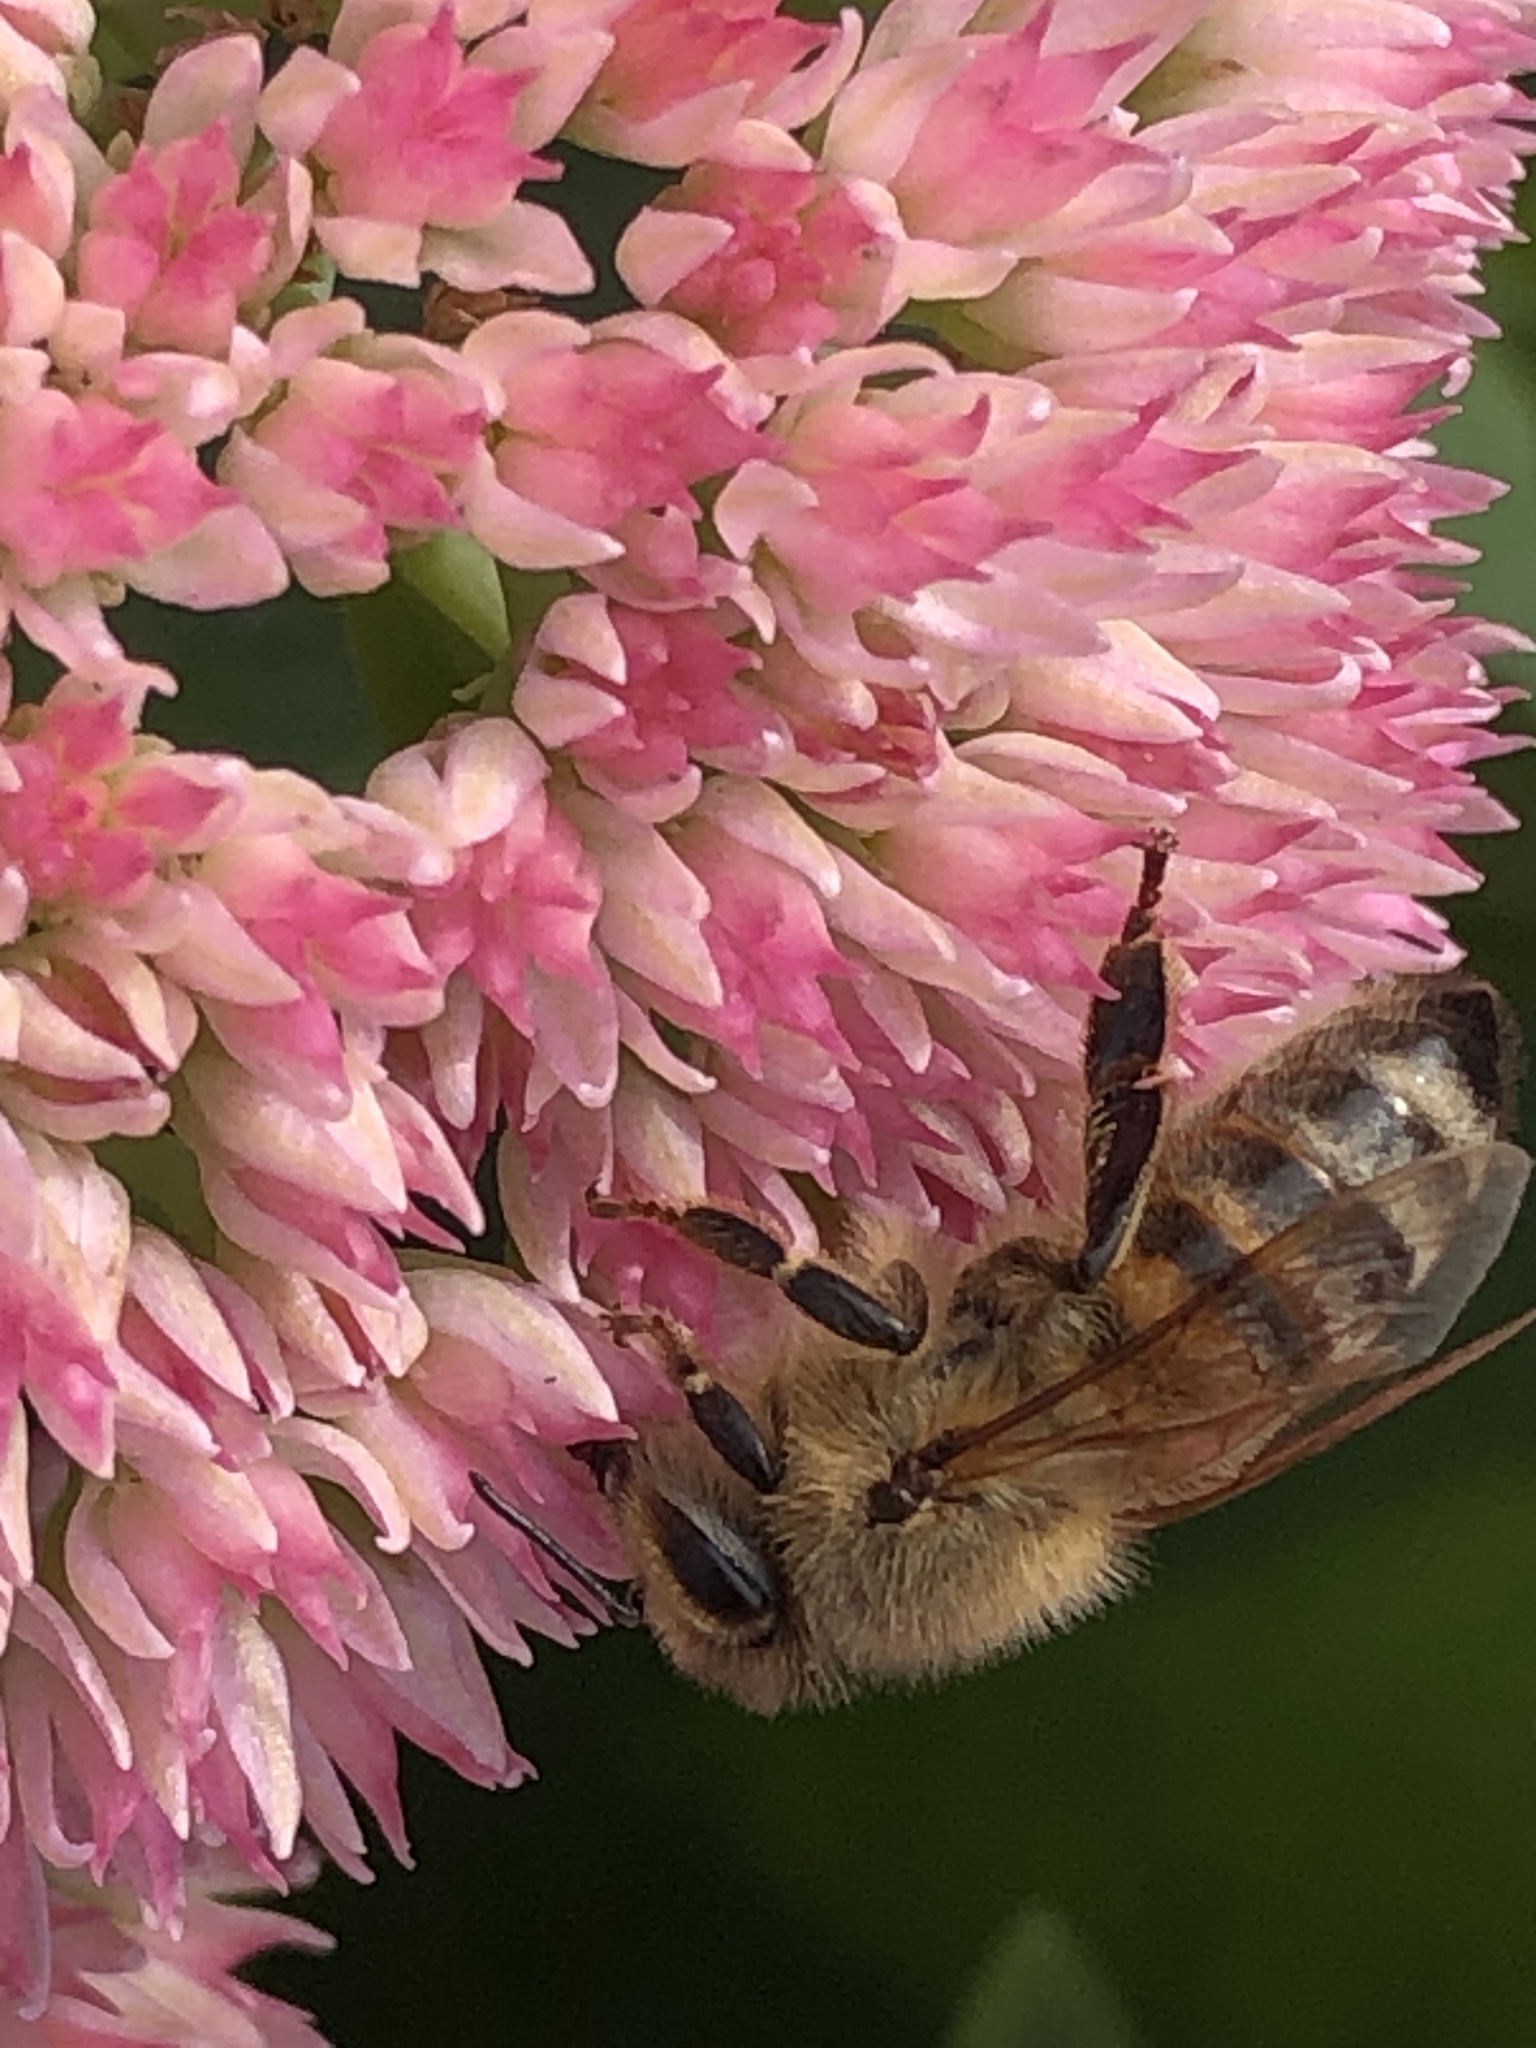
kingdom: Animalia
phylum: Arthropoda
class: Insecta
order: Hymenoptera
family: Apidae
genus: Apis
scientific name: Apis mellifera
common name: Honey bee
